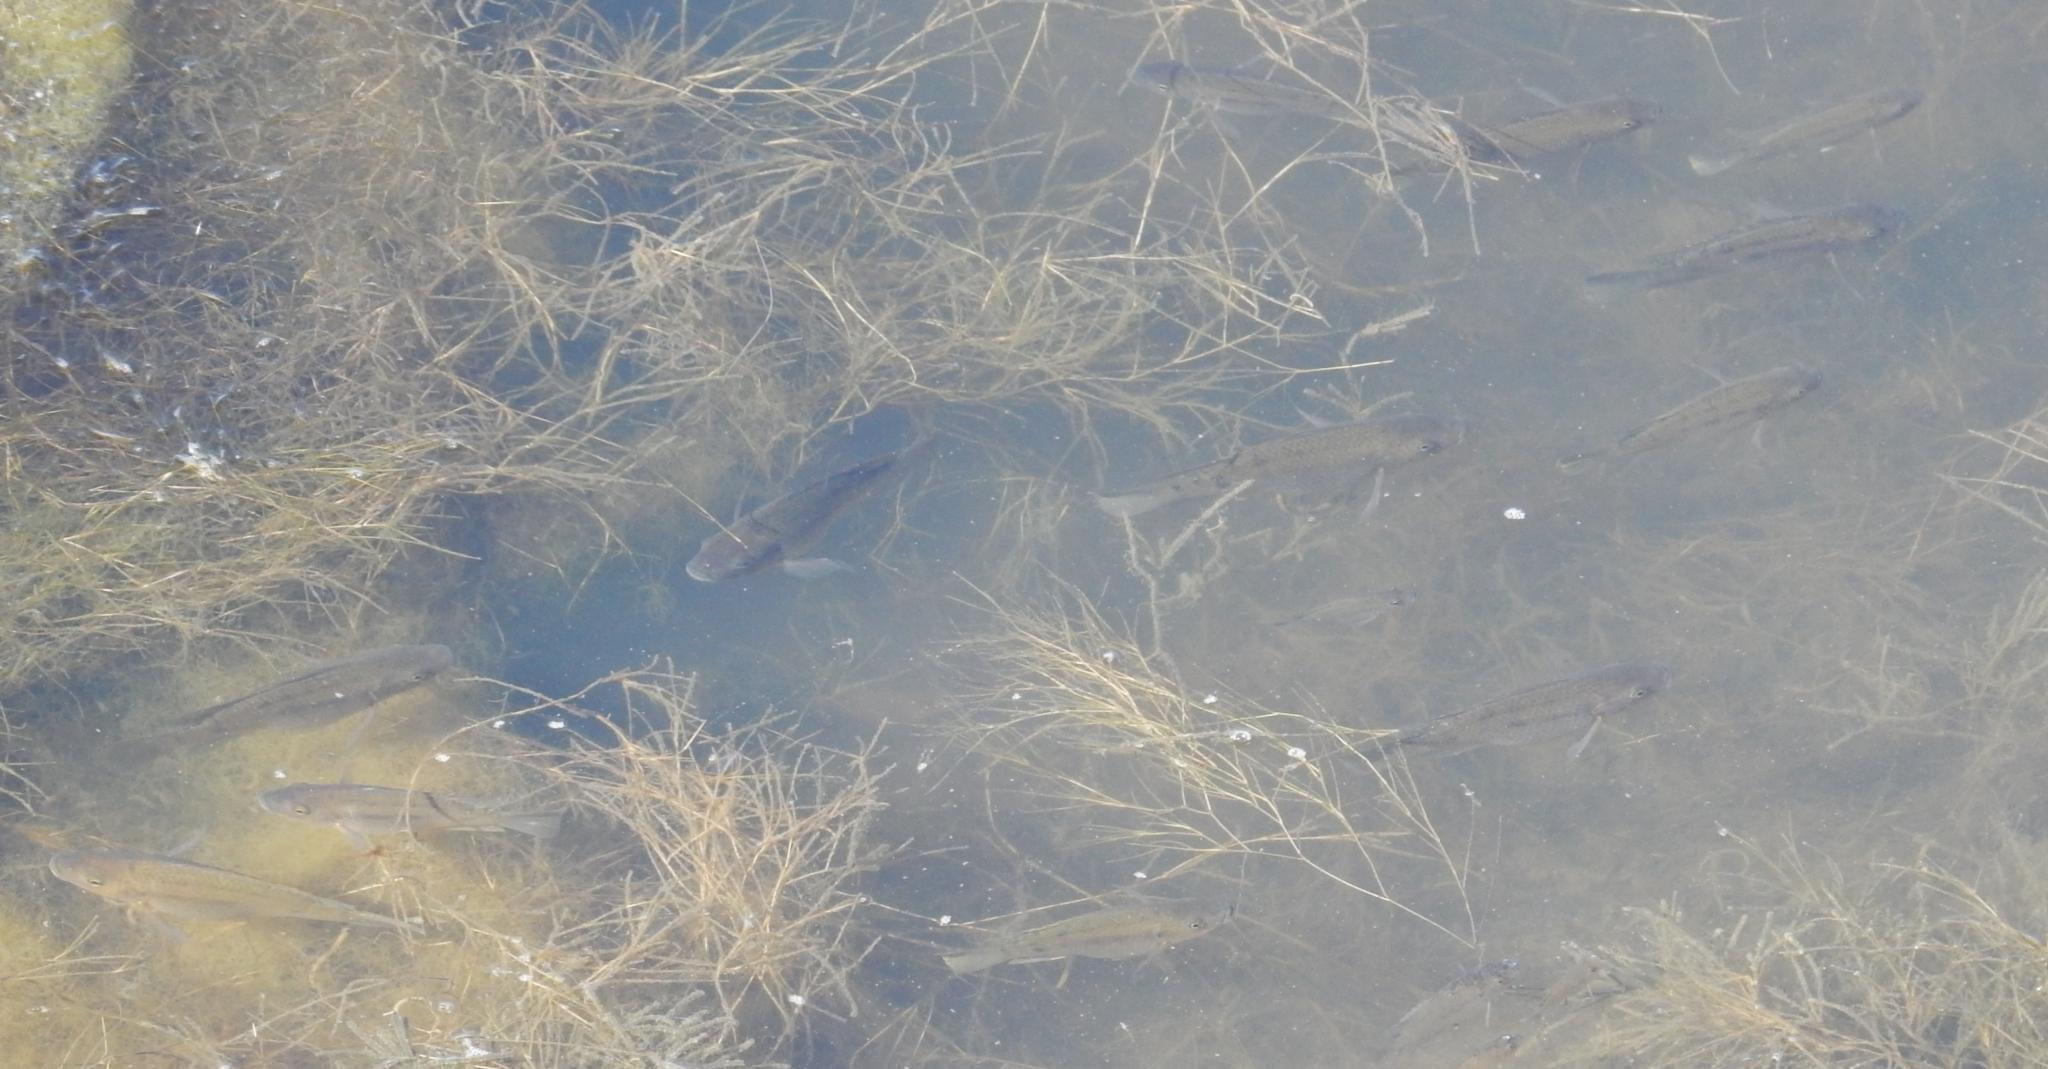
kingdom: Animalia
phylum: Chordata
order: Perciformes
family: Cichlidae
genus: Oreochromis
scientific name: Oreochromis mossambicus
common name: Mozambique tilapia
